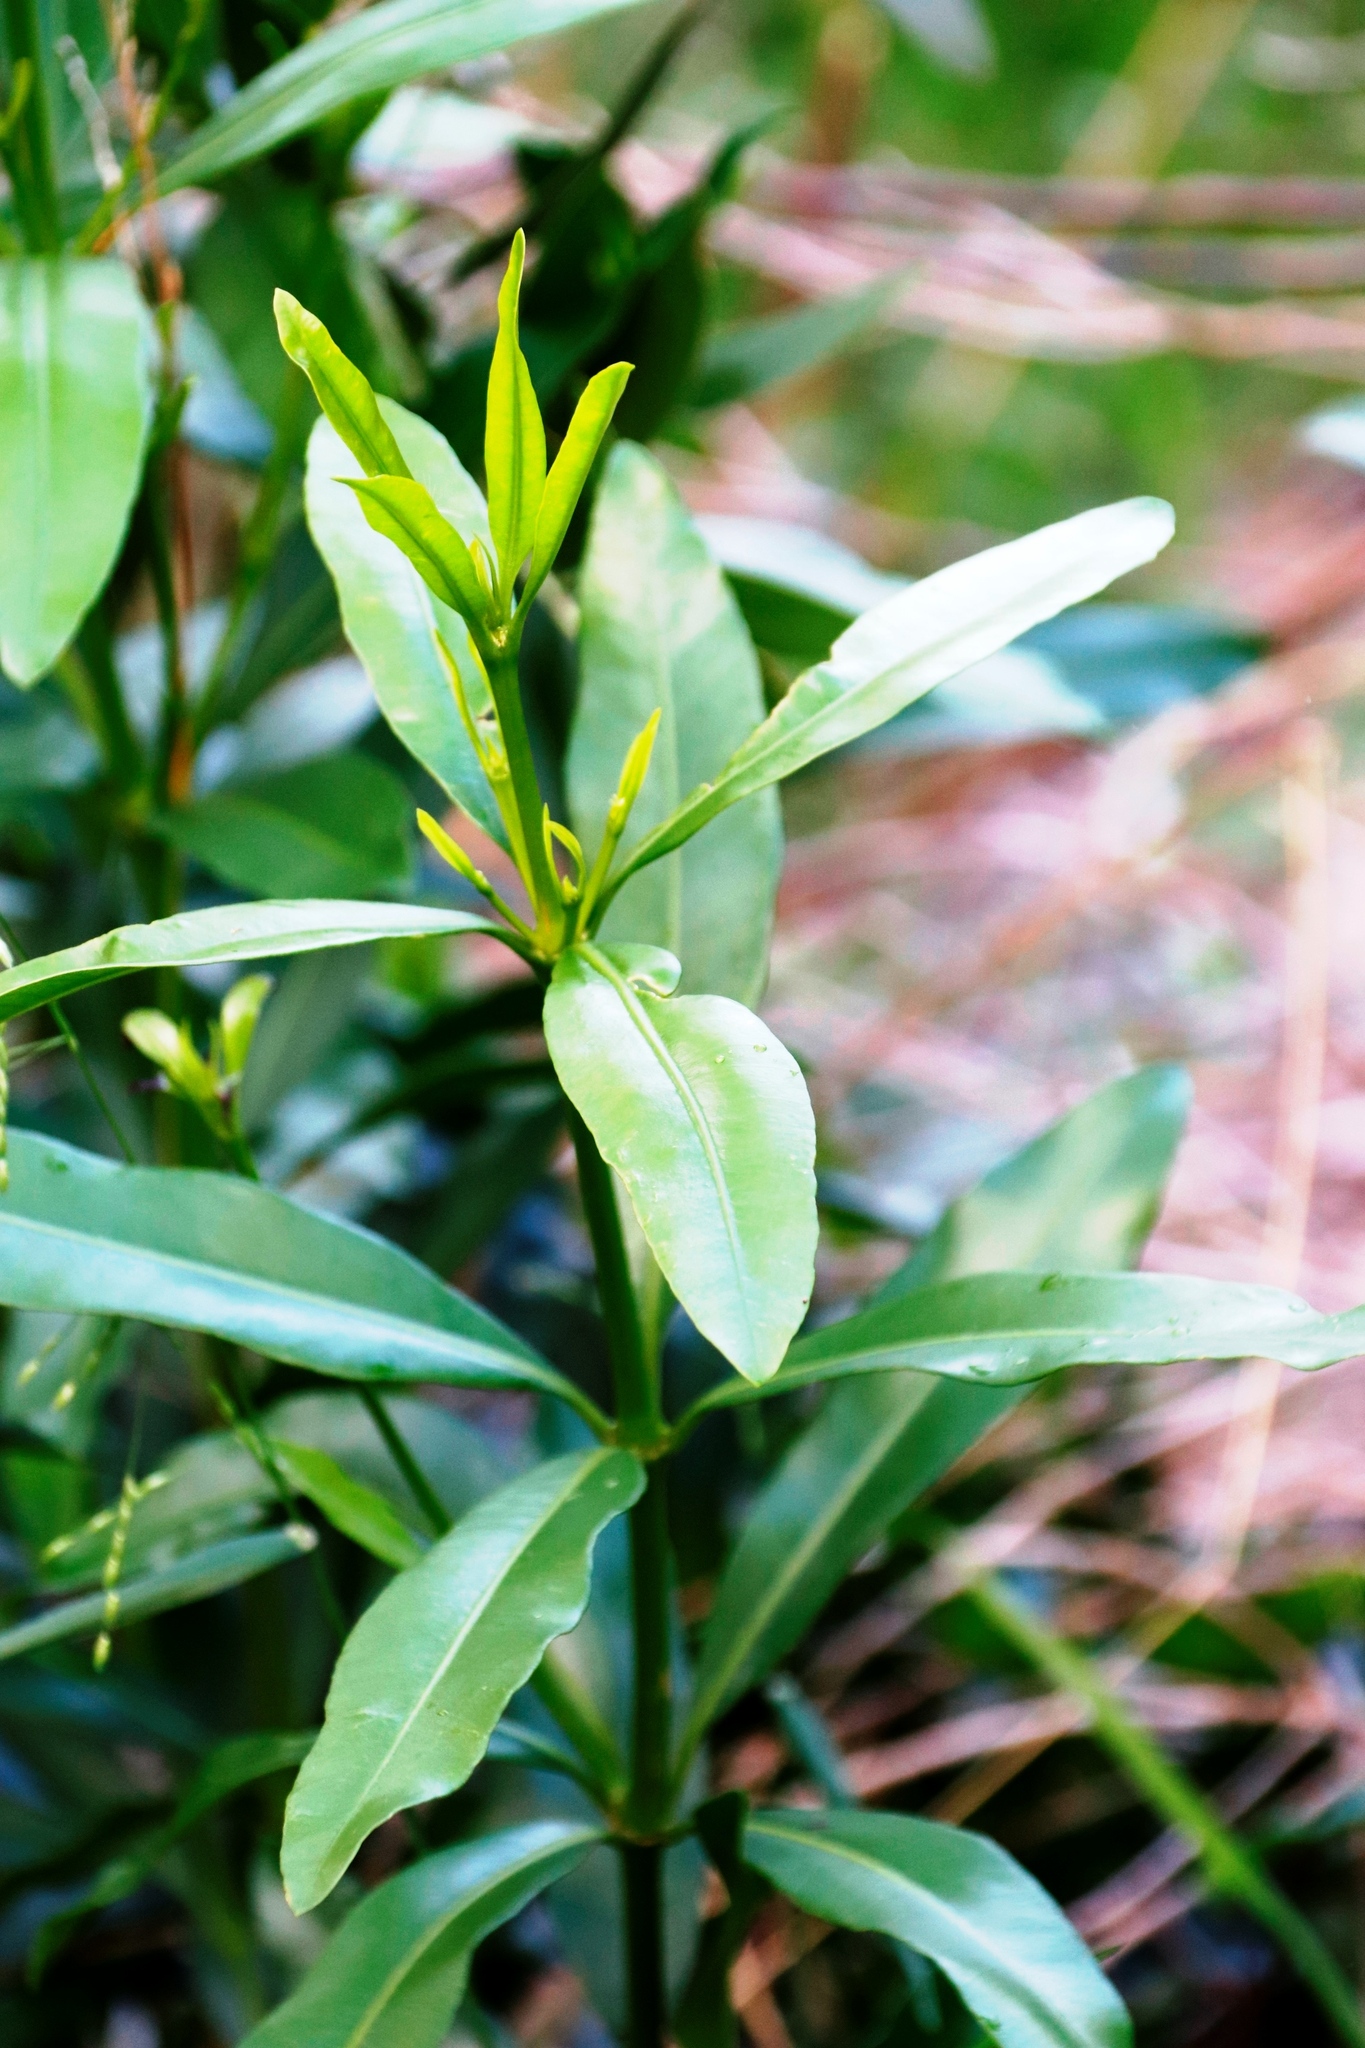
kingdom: Plantae
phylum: Tracheophyta
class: Magnoliopsida
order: Gentianales
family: Apocynaceae
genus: Gonioma
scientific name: Gonioma kamassi
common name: Kamassi
